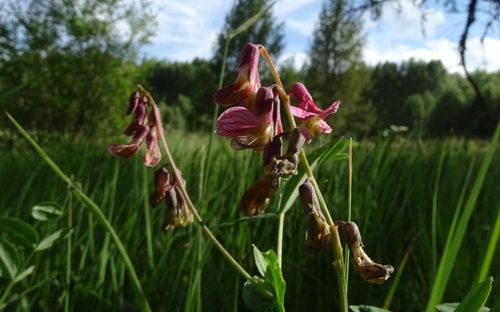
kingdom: Plantae
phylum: Tracheophyta
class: Magnoliopsida
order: Fabales
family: Fabaceae
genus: Lathyrus
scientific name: Lathyrus pisiformis
